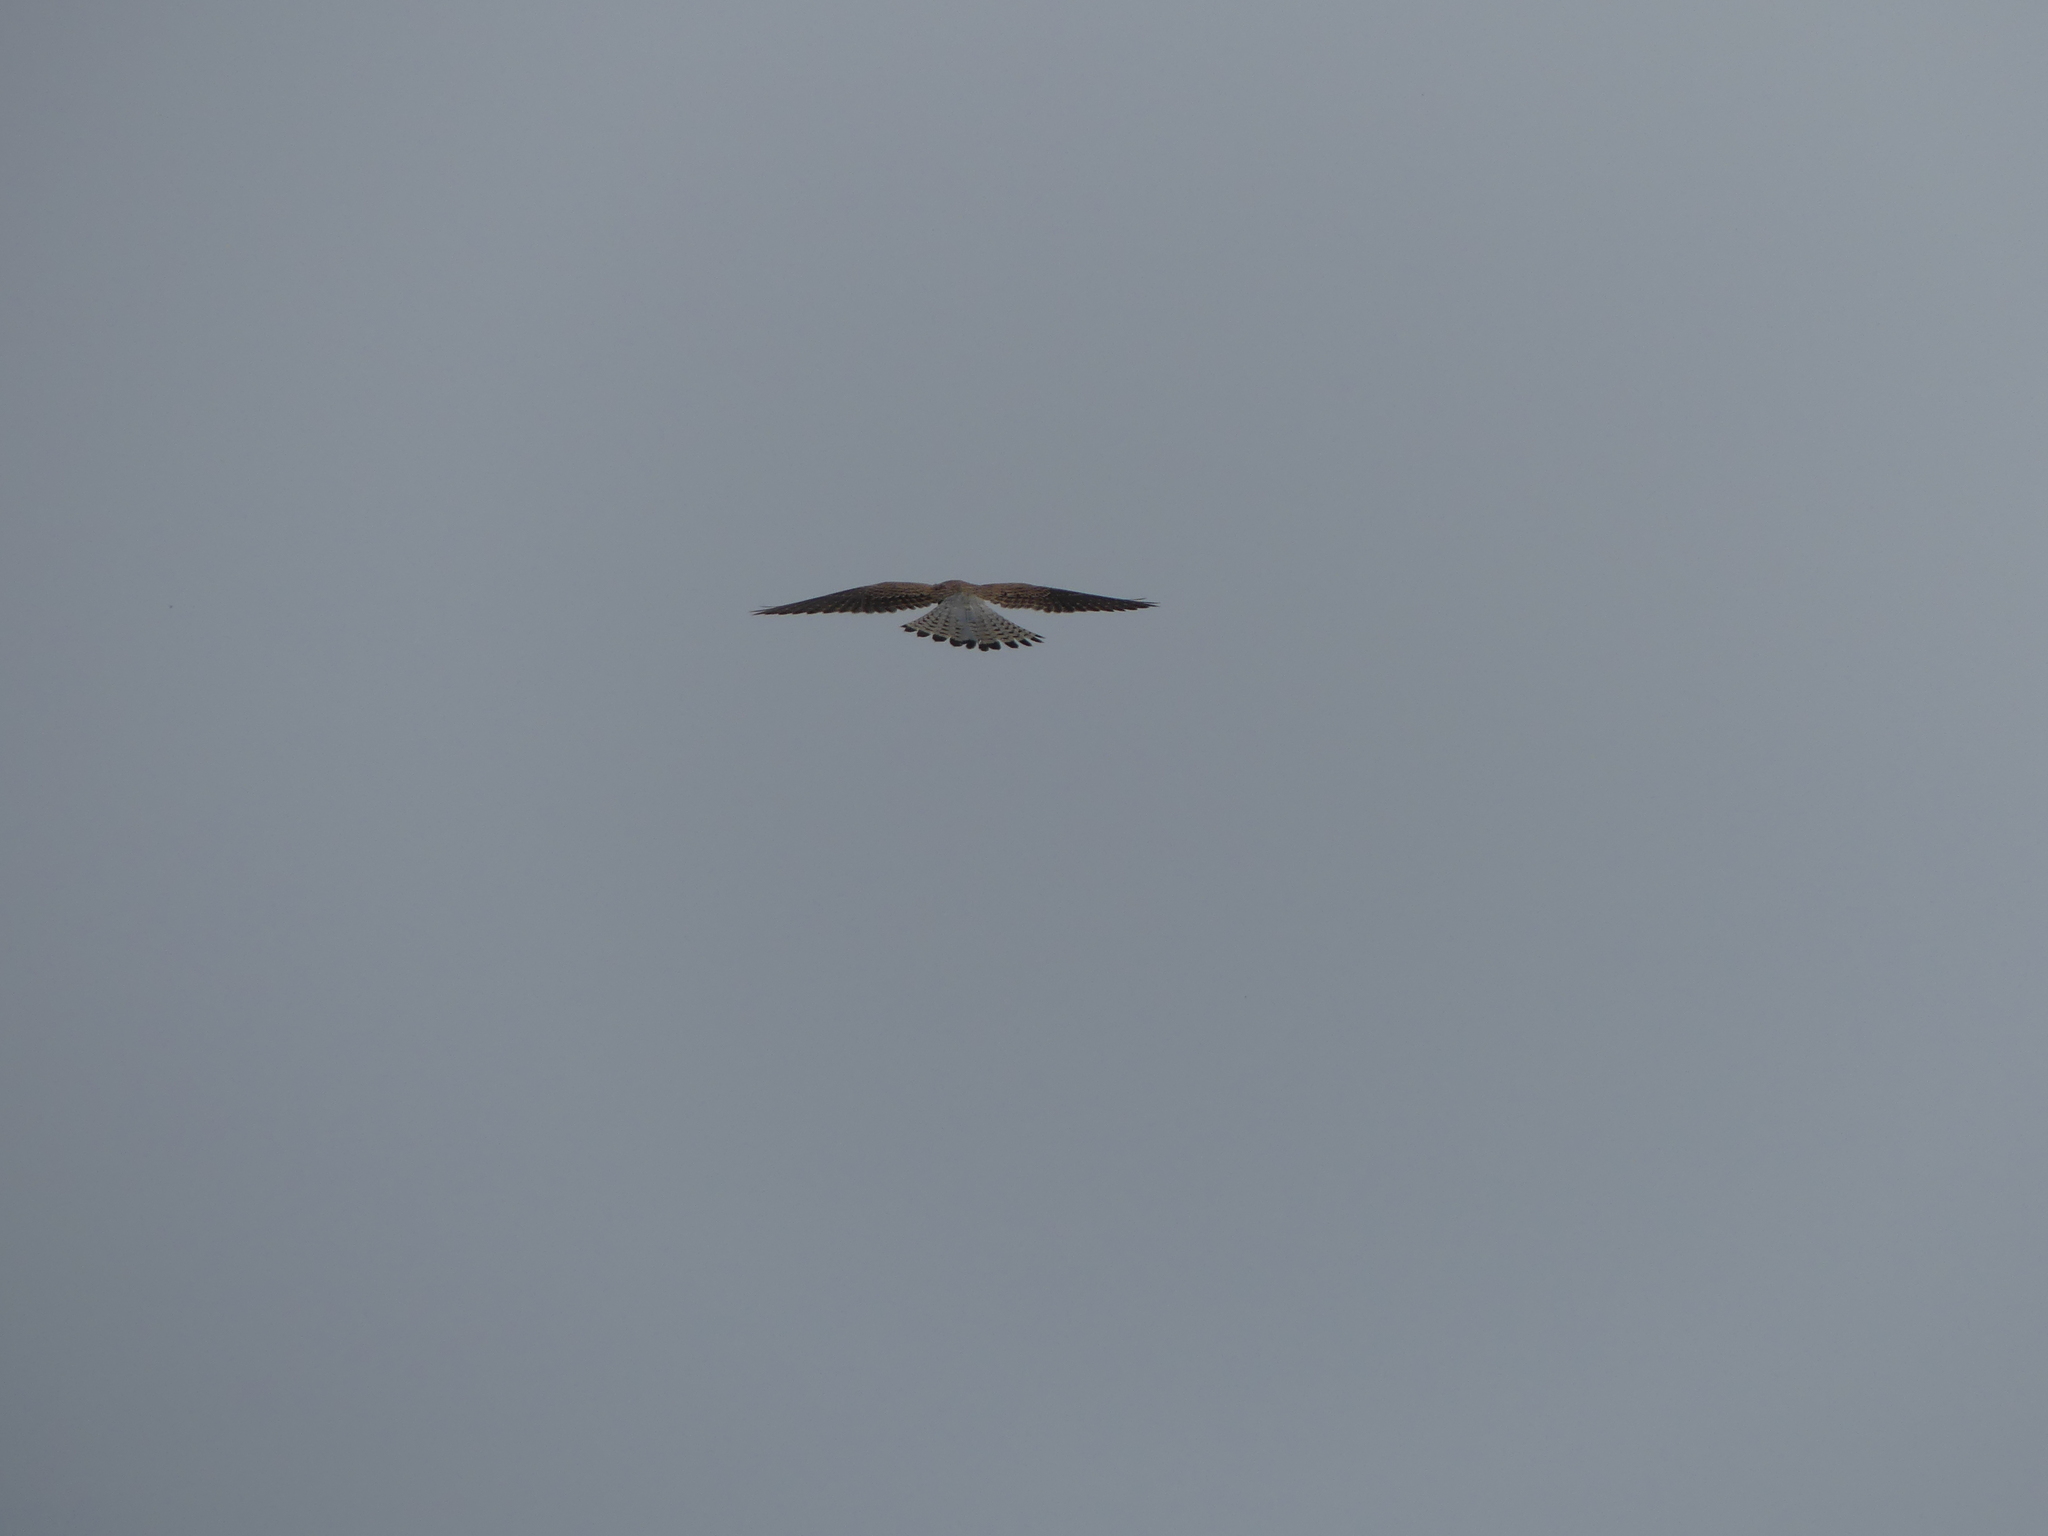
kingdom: Animalia
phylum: Chordata
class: Aves
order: Falconiformes
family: Falconidae
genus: Falco
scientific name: Falco tinnunculus
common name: Common kestrel
